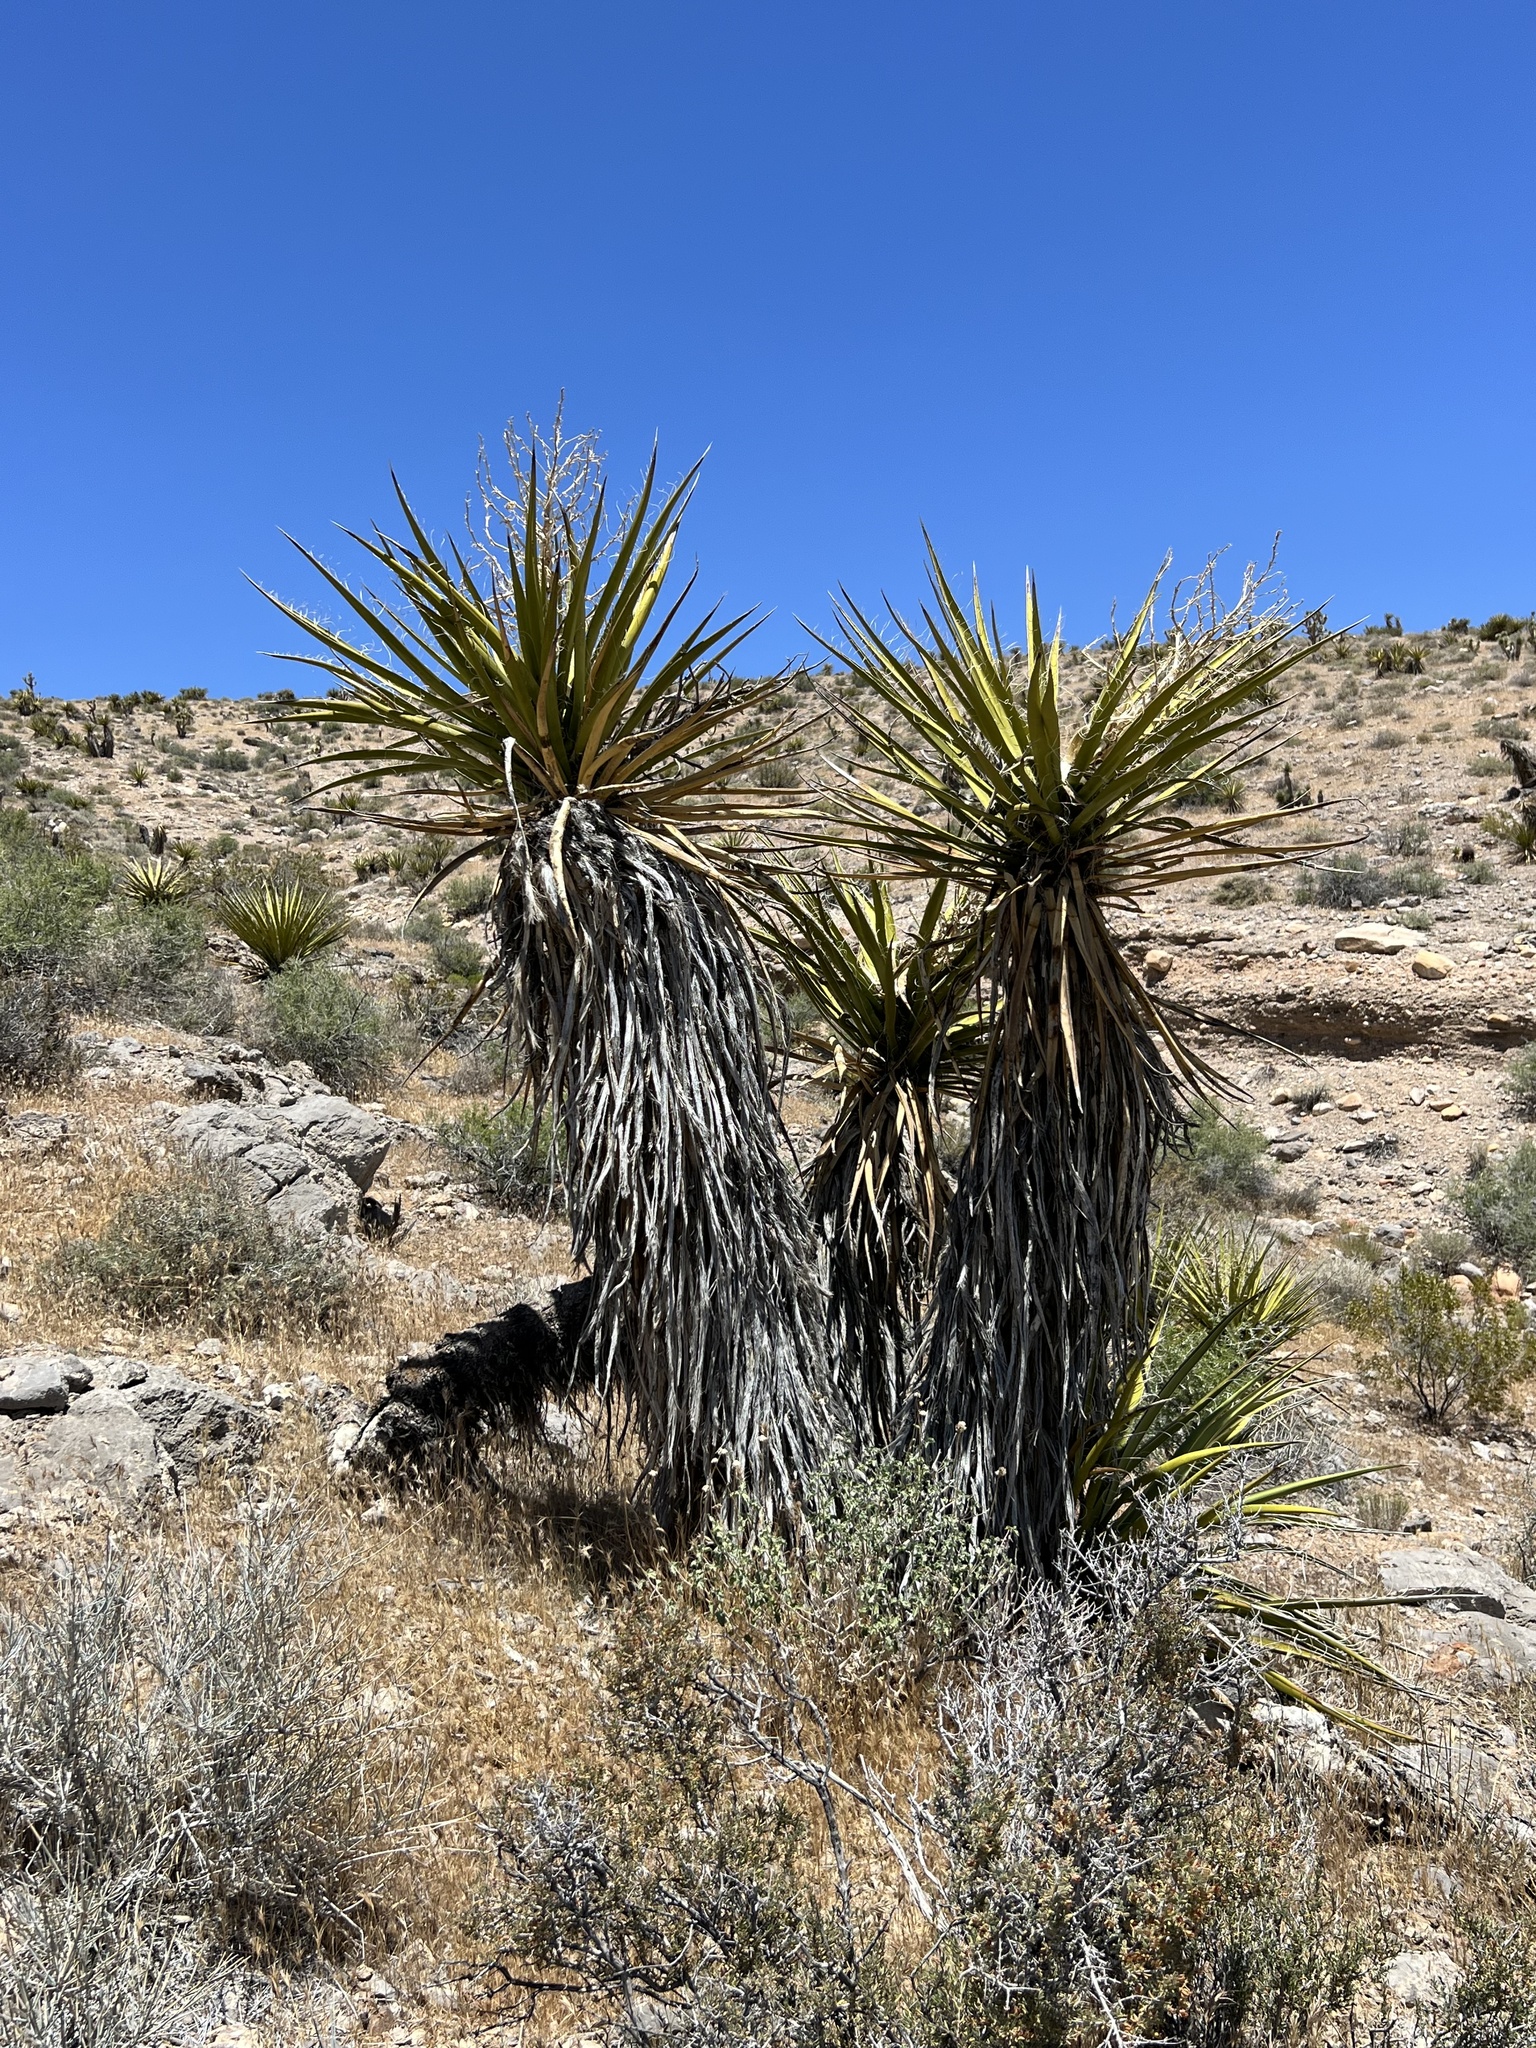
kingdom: Plantae
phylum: Tracheophyta
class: Liliopsida
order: Asparagales
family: Asparagaceae
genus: Yucca
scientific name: Yucca schidigera
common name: Mojave yucca
